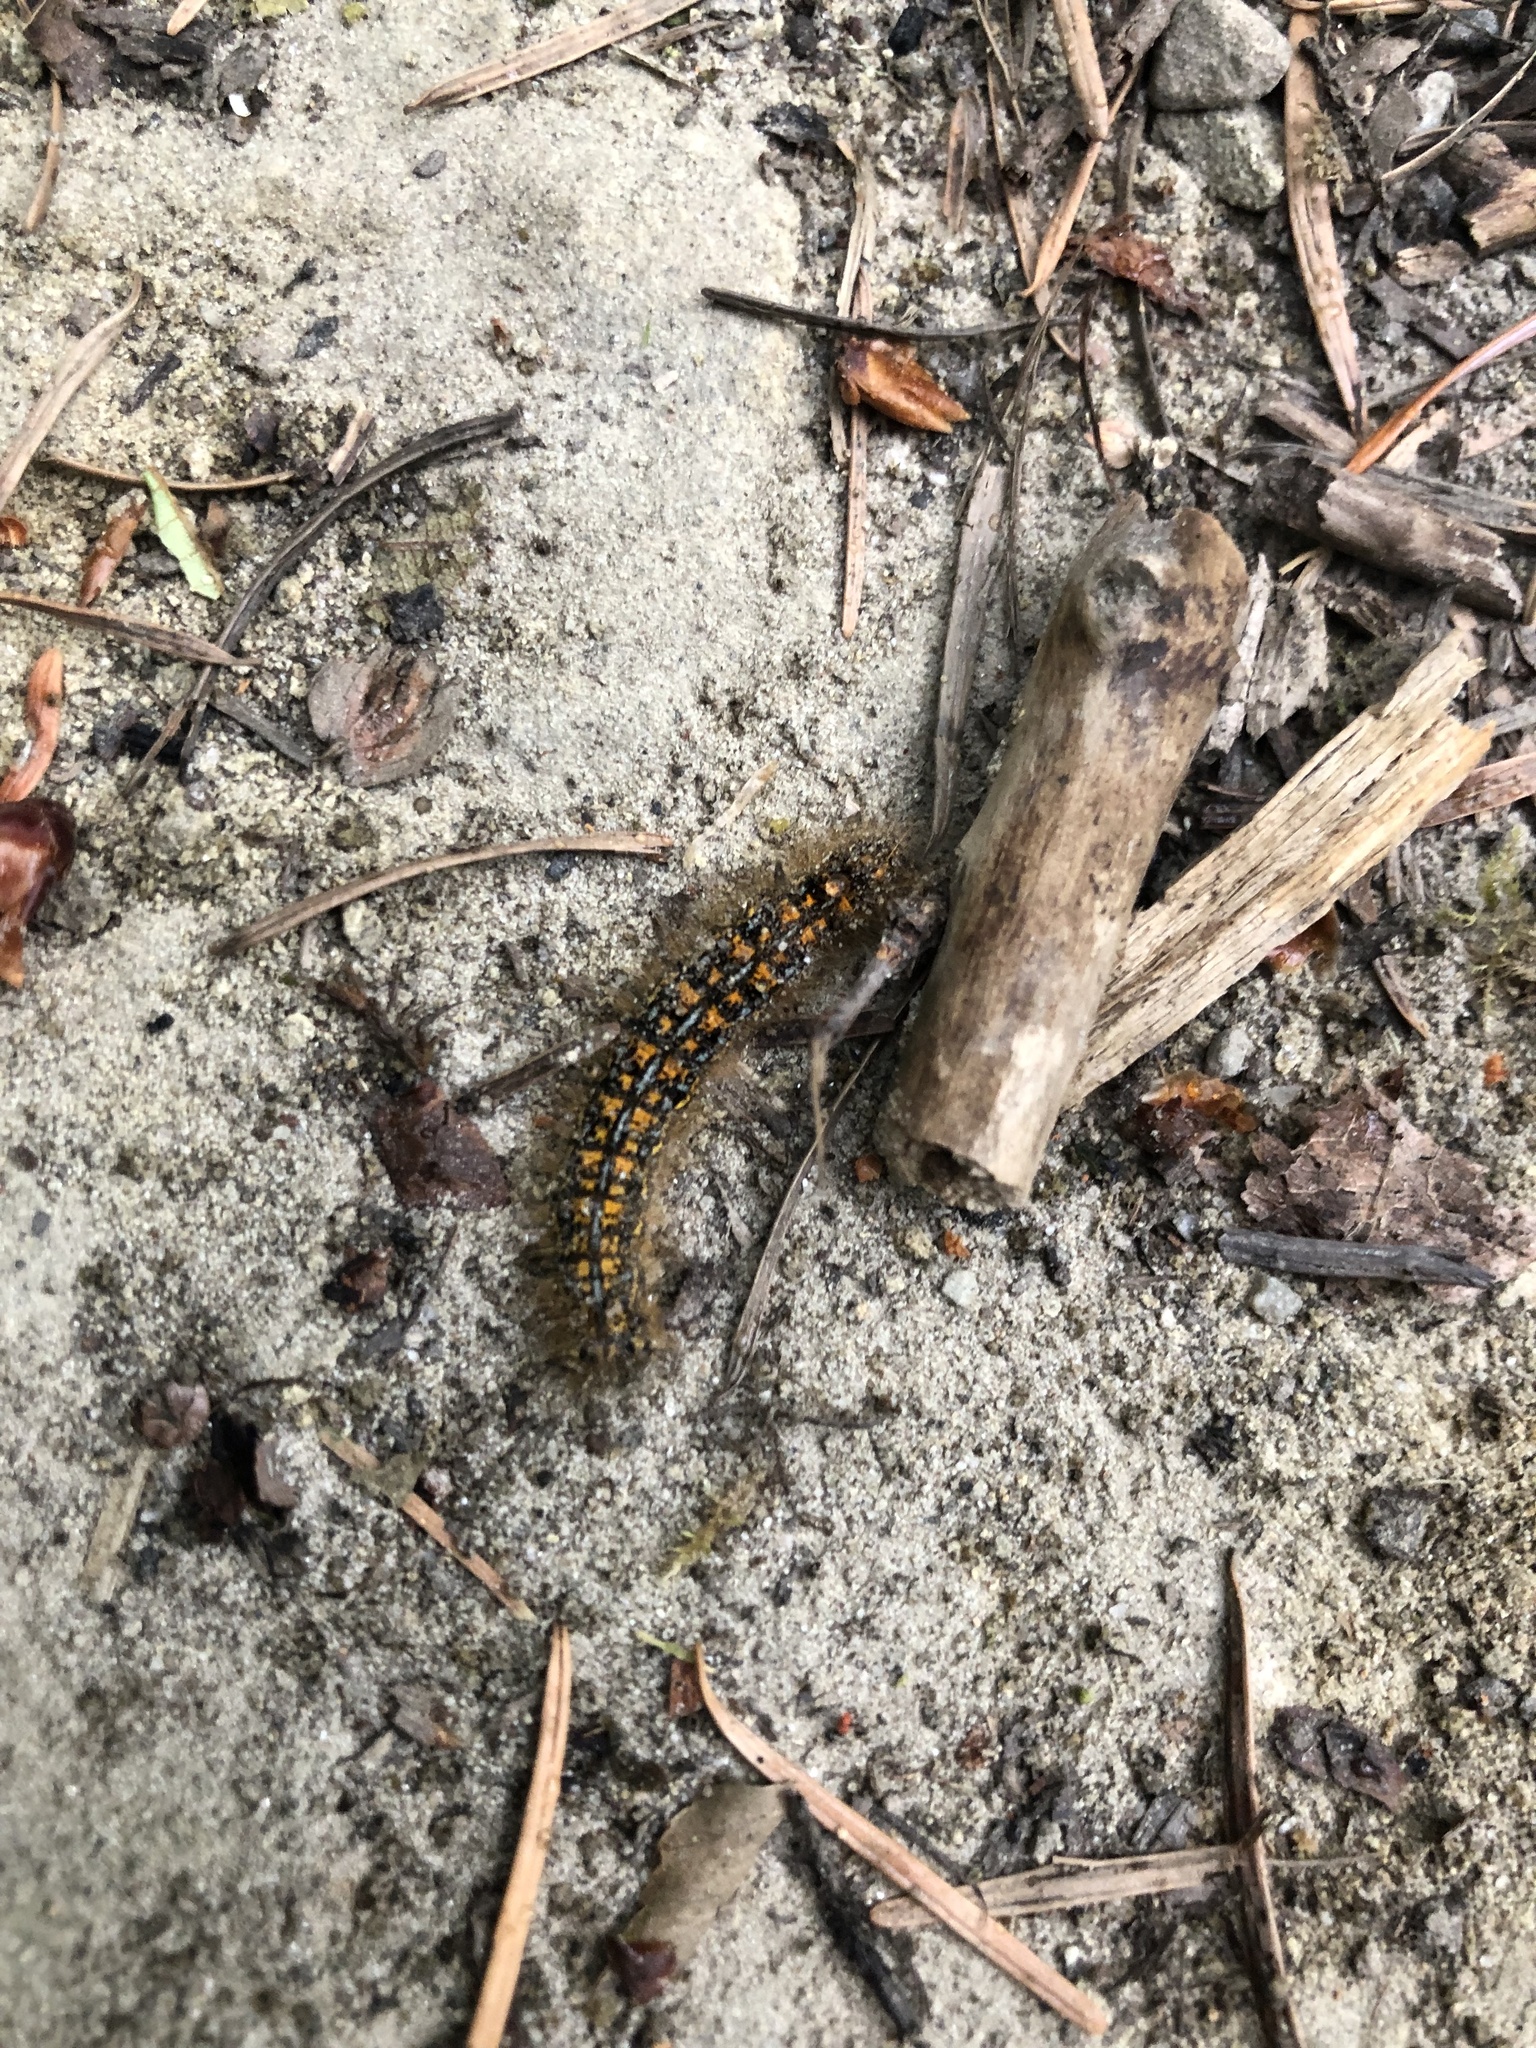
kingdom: Animalia
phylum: Arthropoda
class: Insecta
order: Lepidoptera
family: Lasiocampidae
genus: Malacosoma
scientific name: Malacosoma californica
